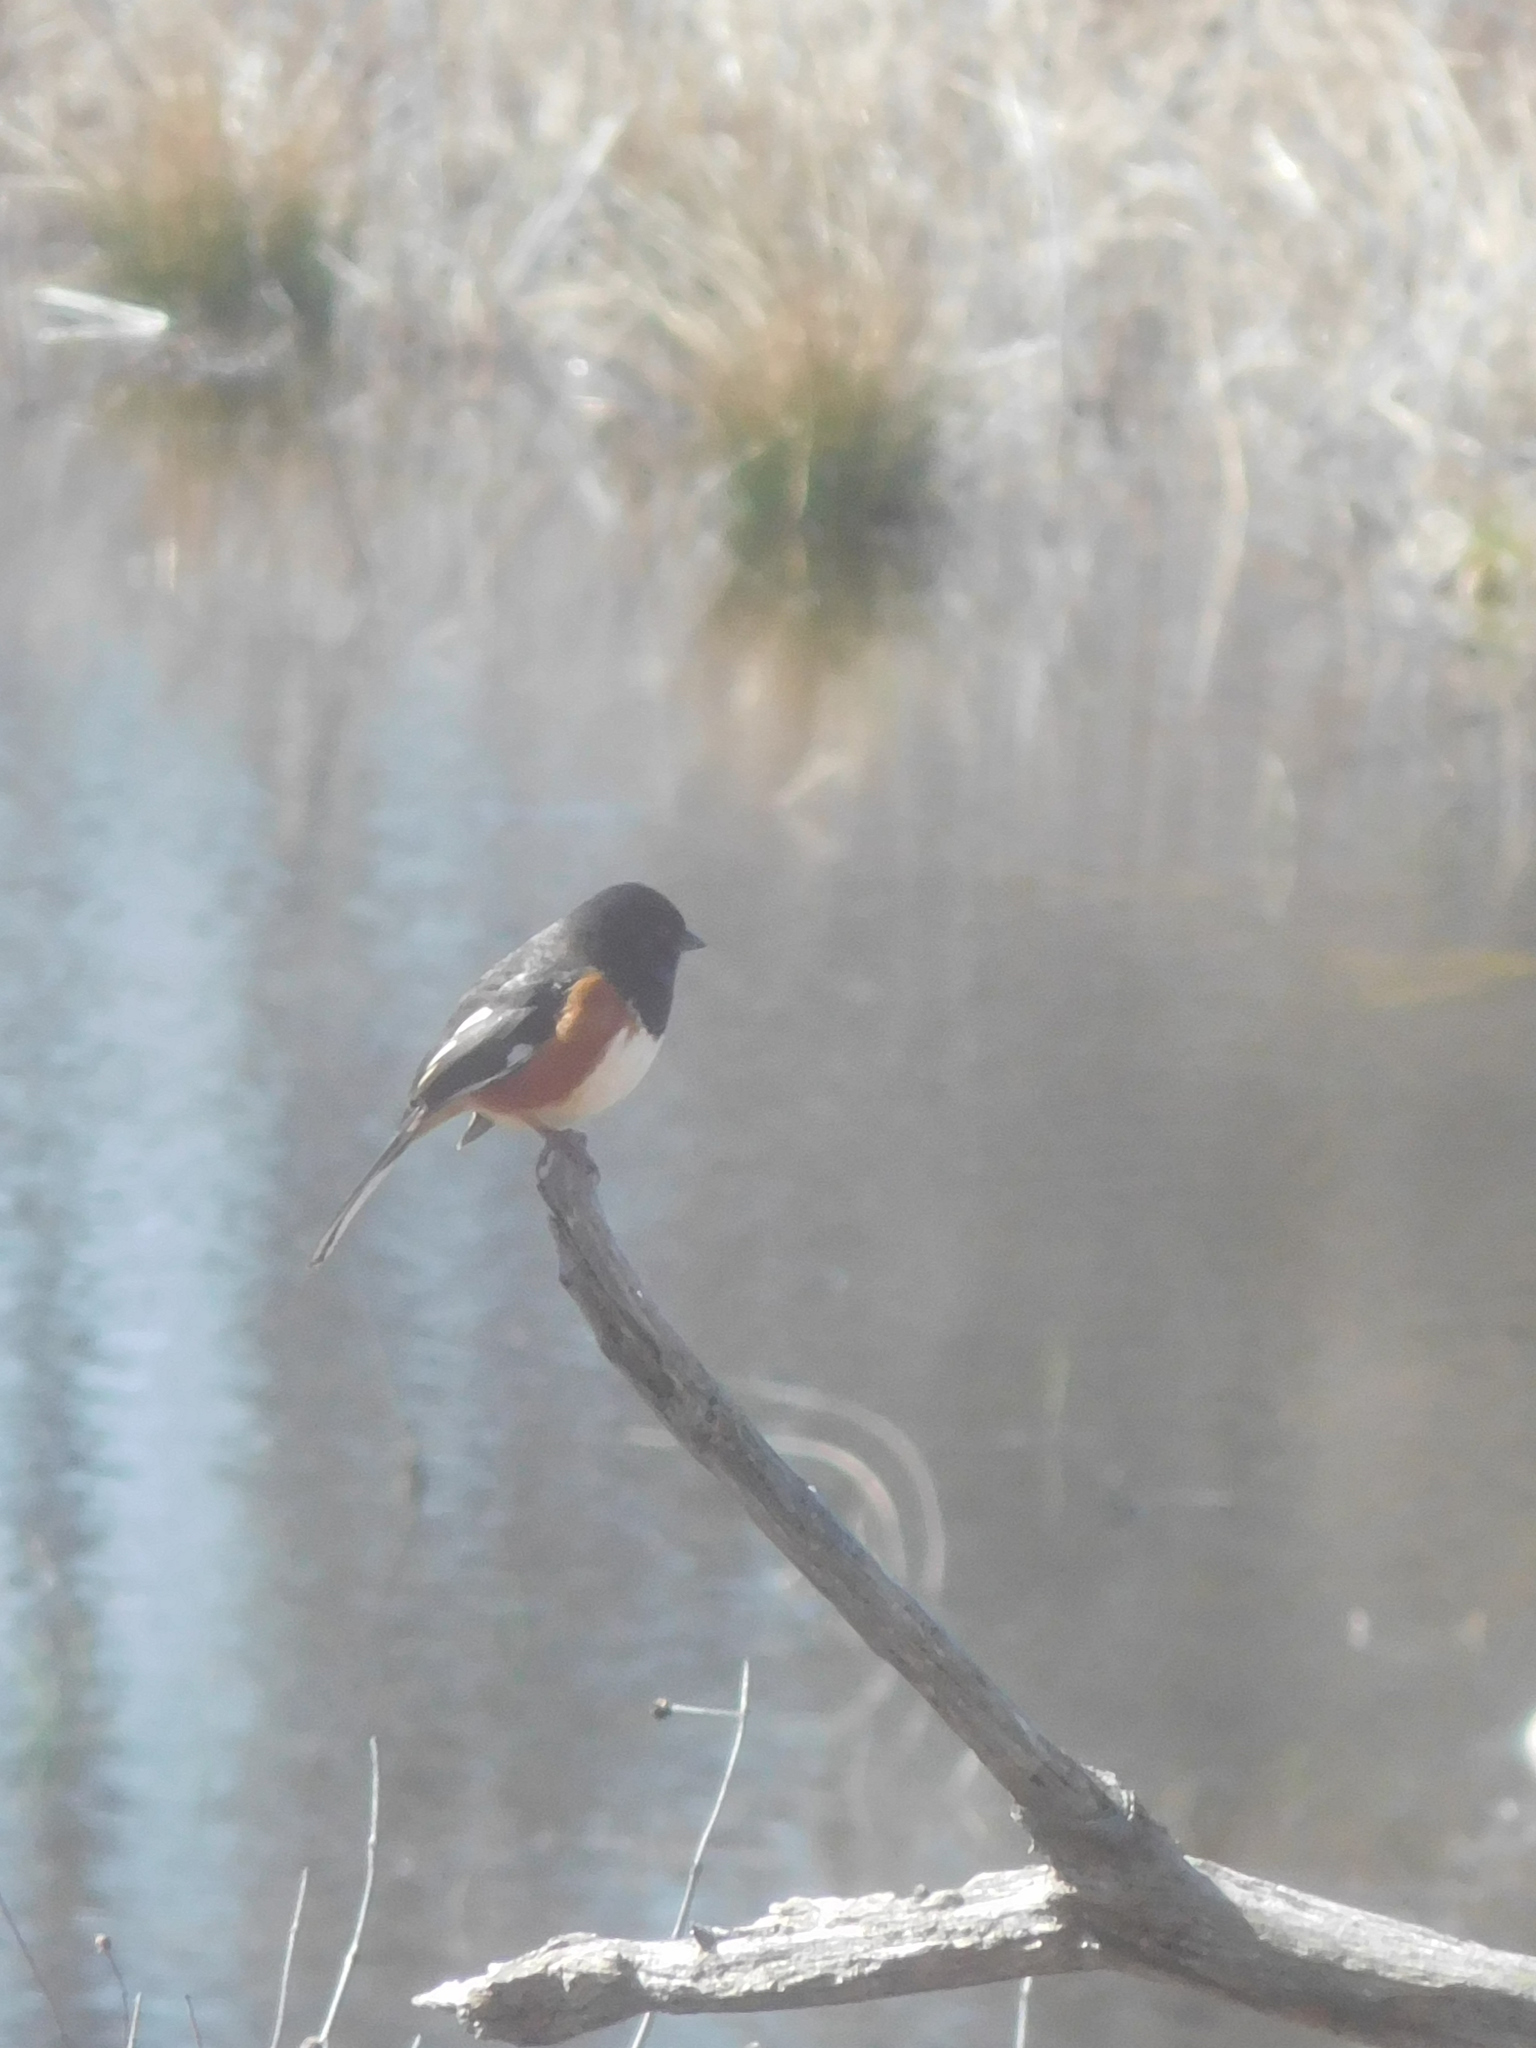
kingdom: Animalia
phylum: Chordata
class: Aves
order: Passeriformes
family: Passerellidae
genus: Pipilo
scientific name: Pipilo erythrophthalmus
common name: Eastern towhee
